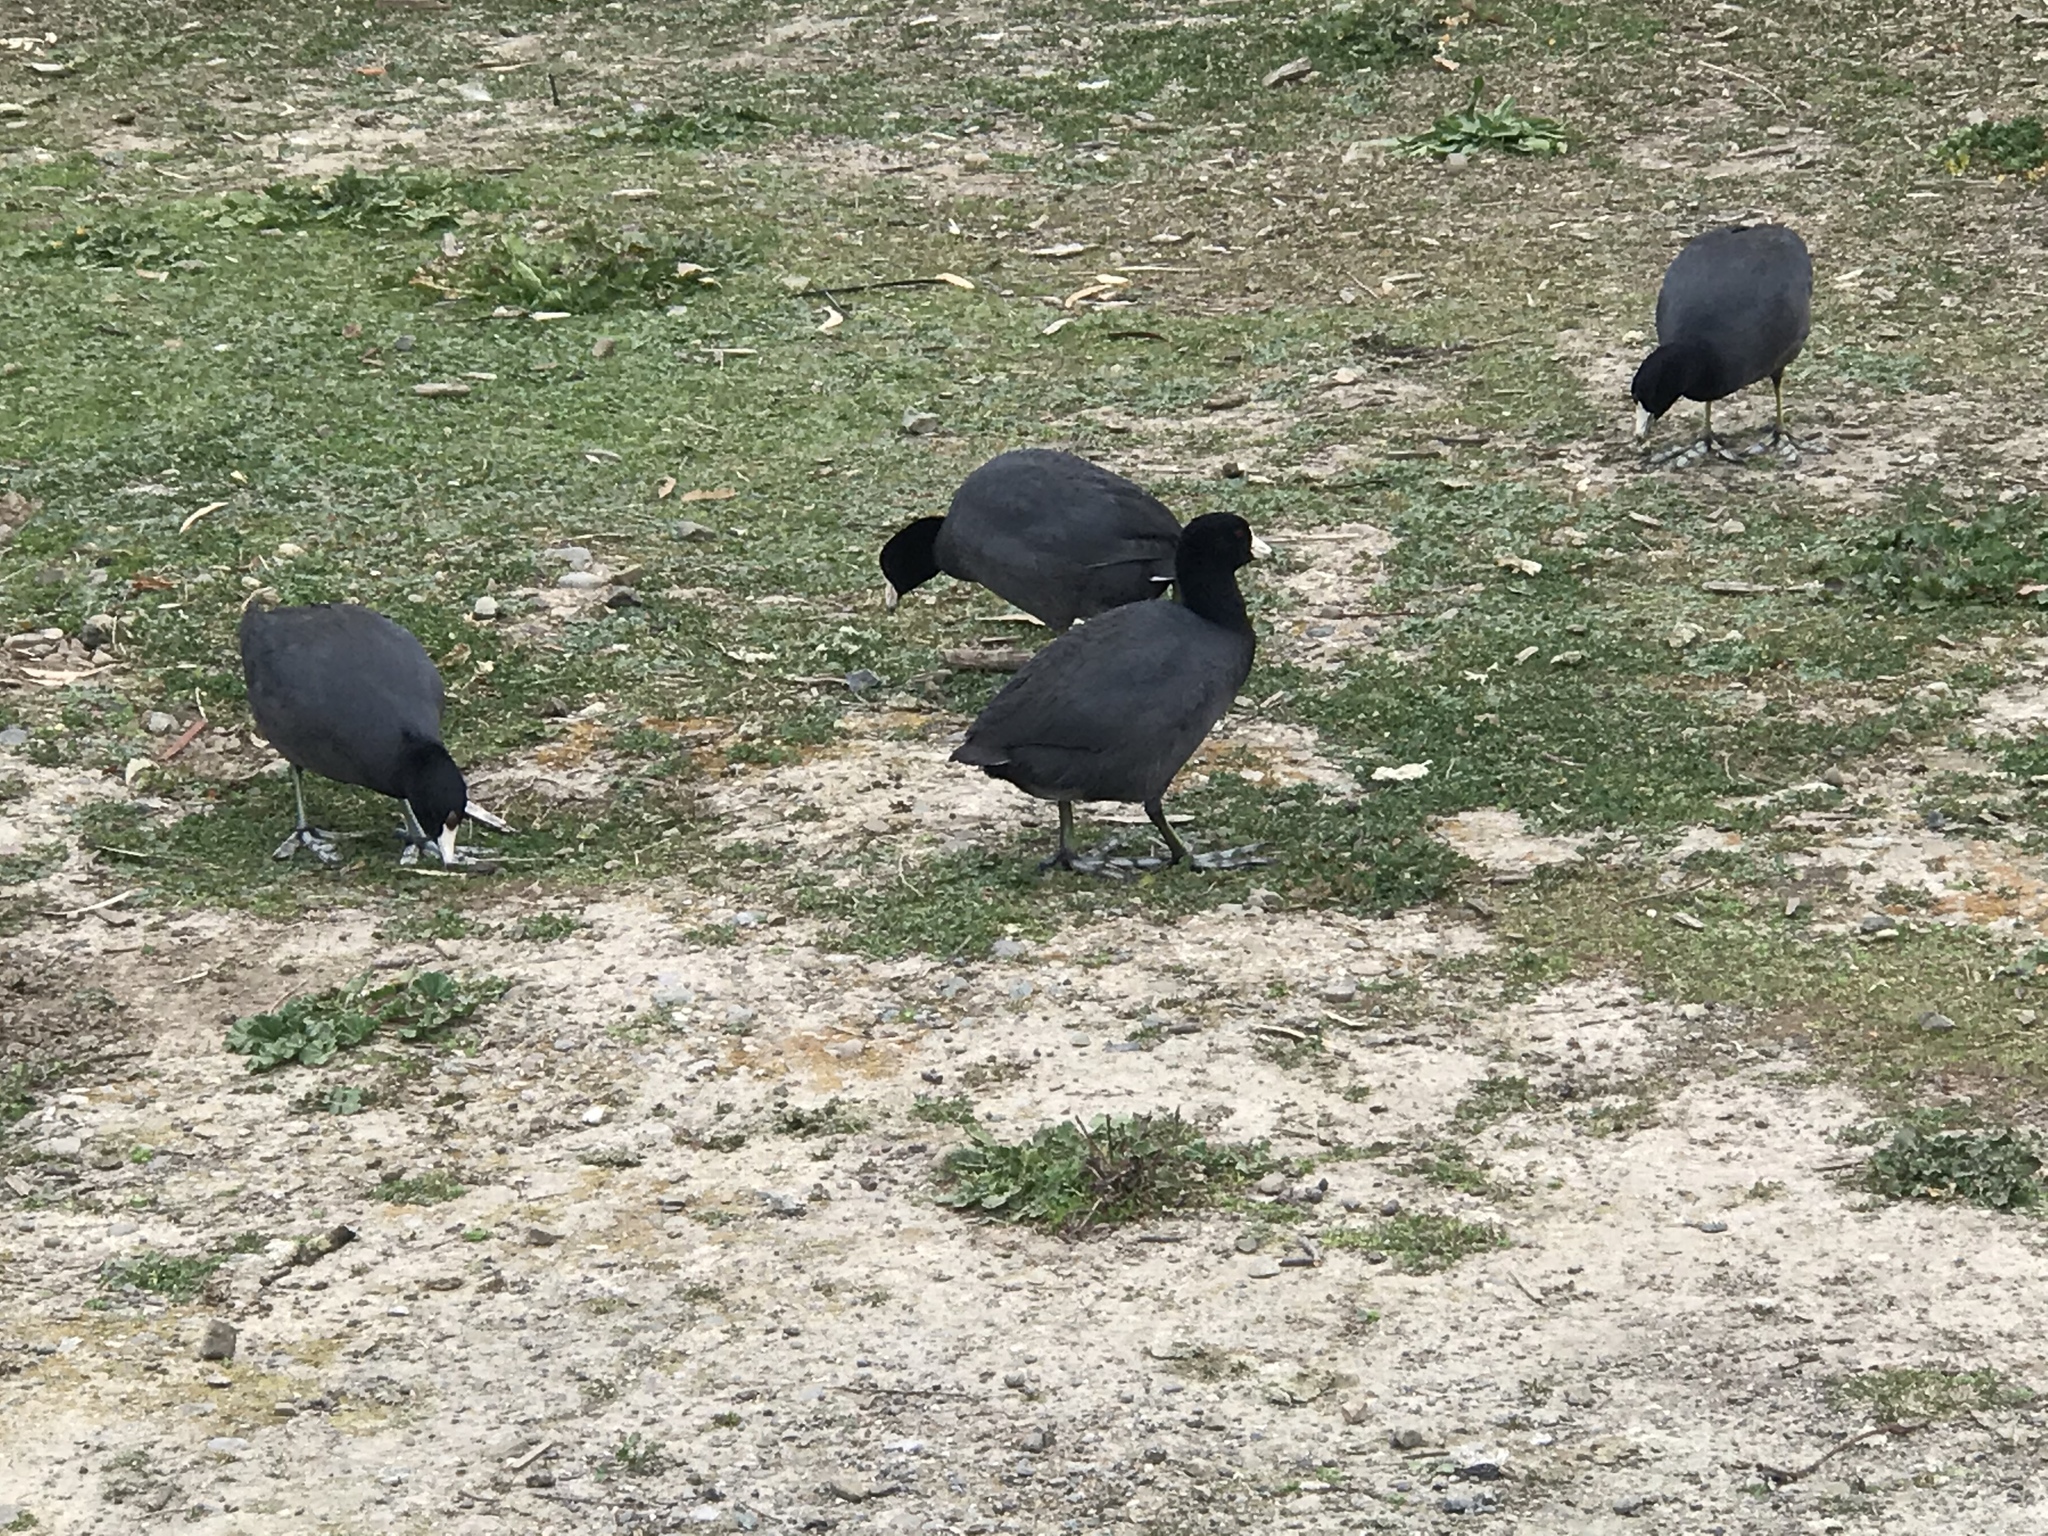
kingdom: Animalia
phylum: Chordata
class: Aves
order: Gruiformes
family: Rallidae
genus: Fulica
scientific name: Fulica americana
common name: American coot
